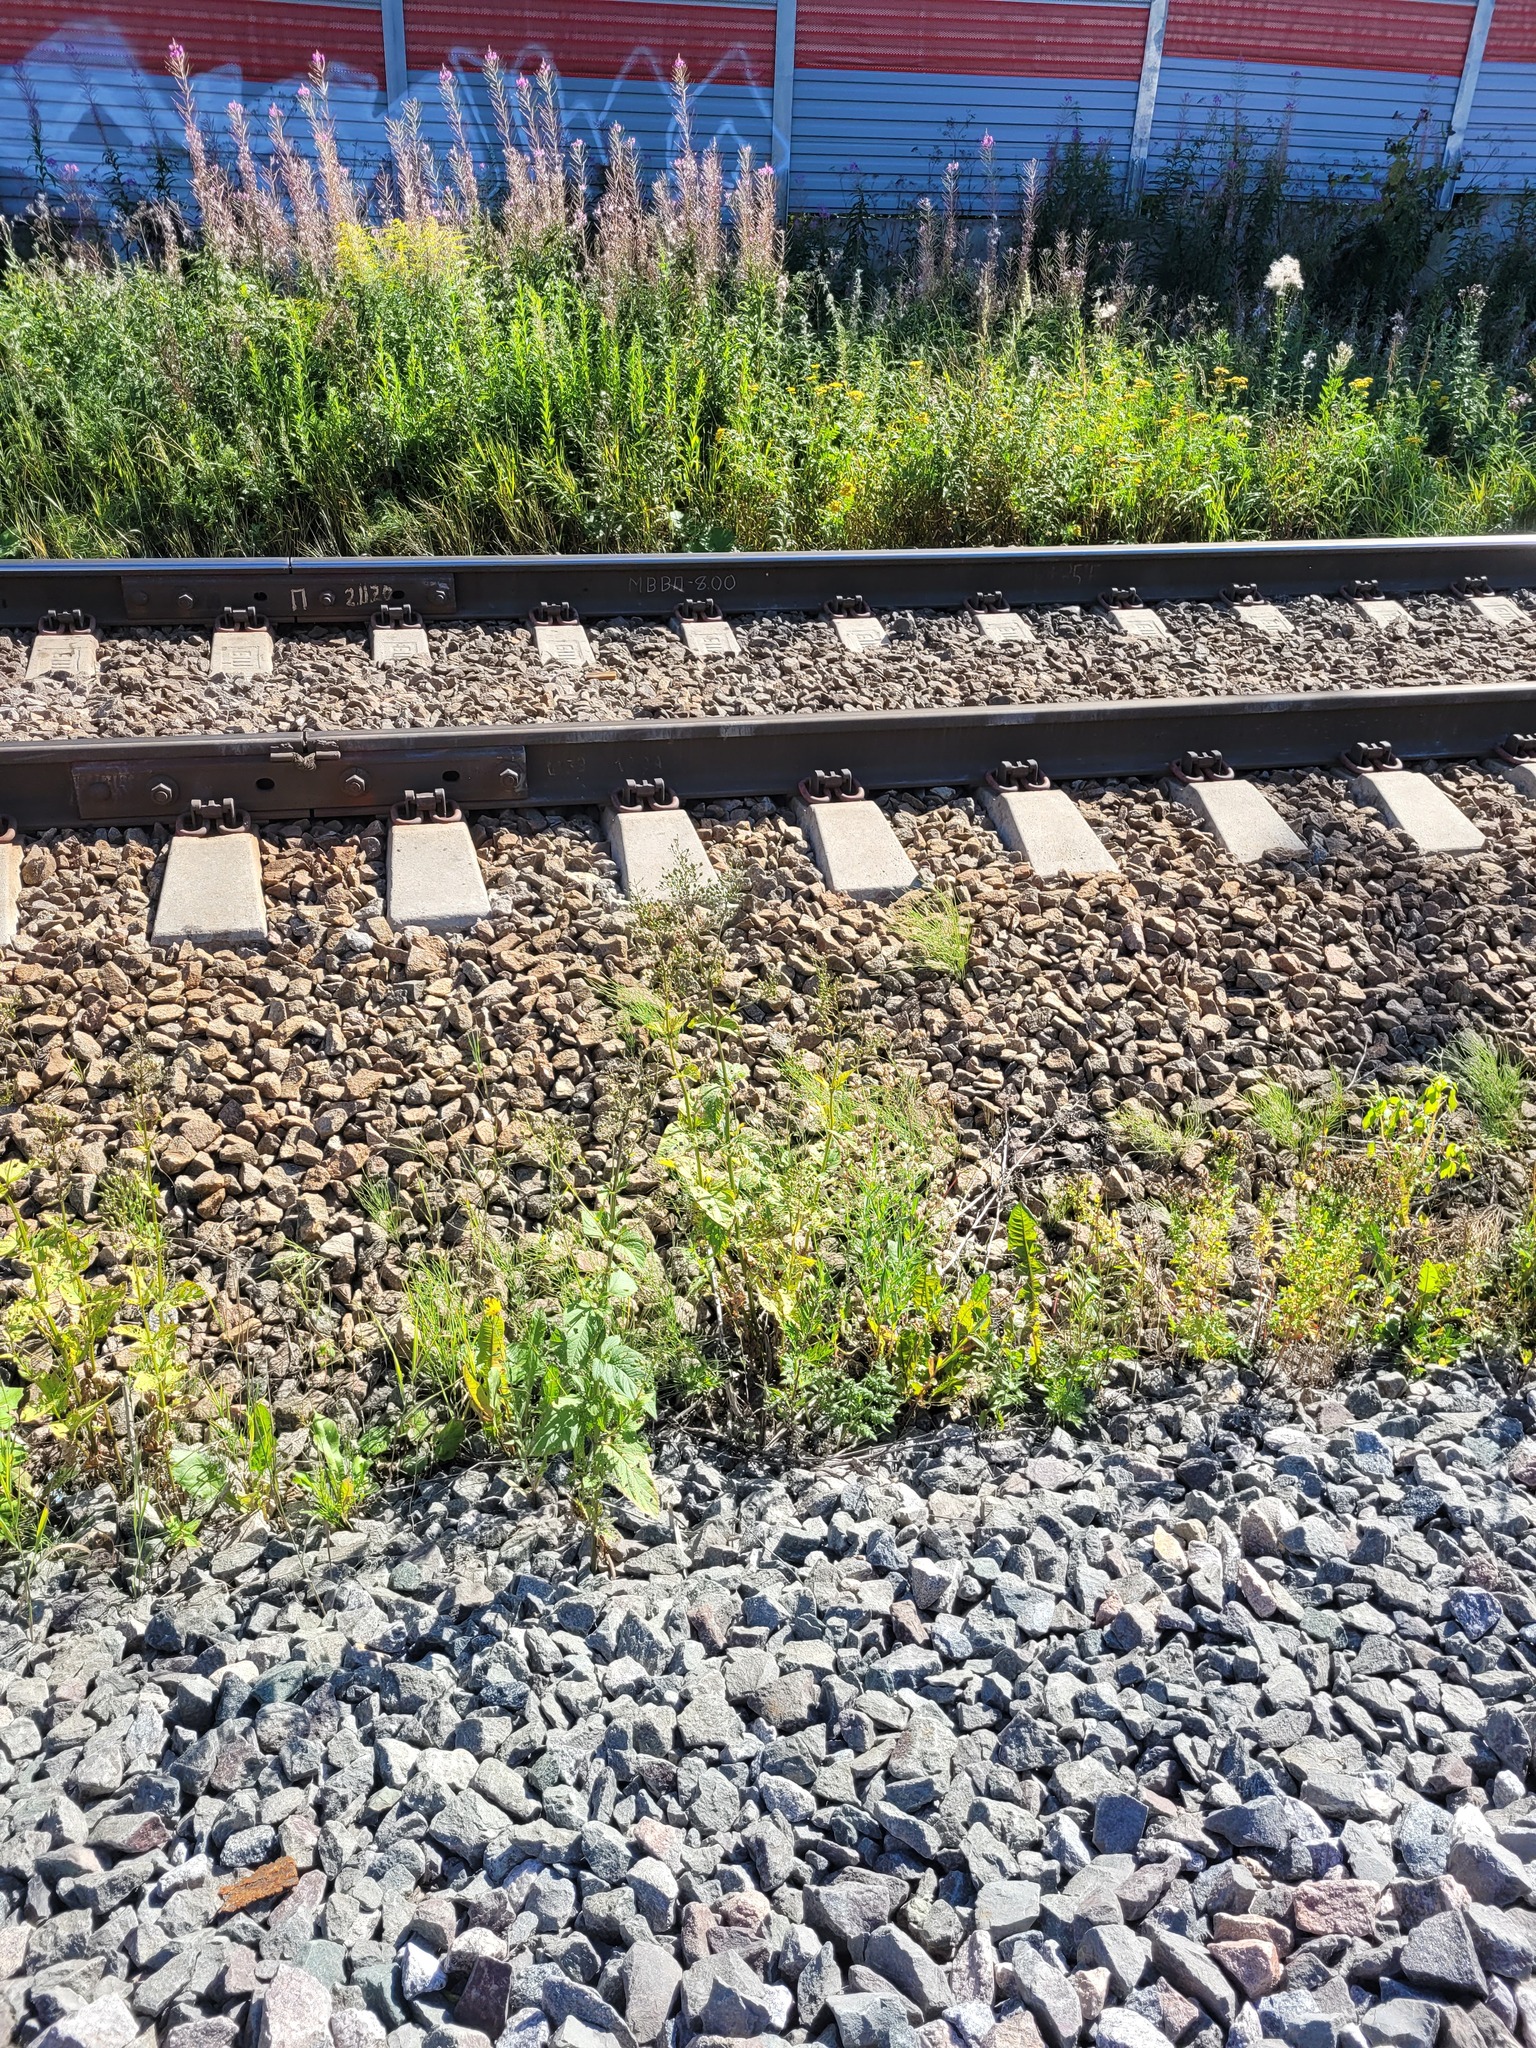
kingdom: Plantae
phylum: Tracheophyta
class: Magnoliopsida
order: Lamiales
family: Scrophulariaceae
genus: Scrophularia
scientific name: Scrophularia nodosa
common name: Common figwort
